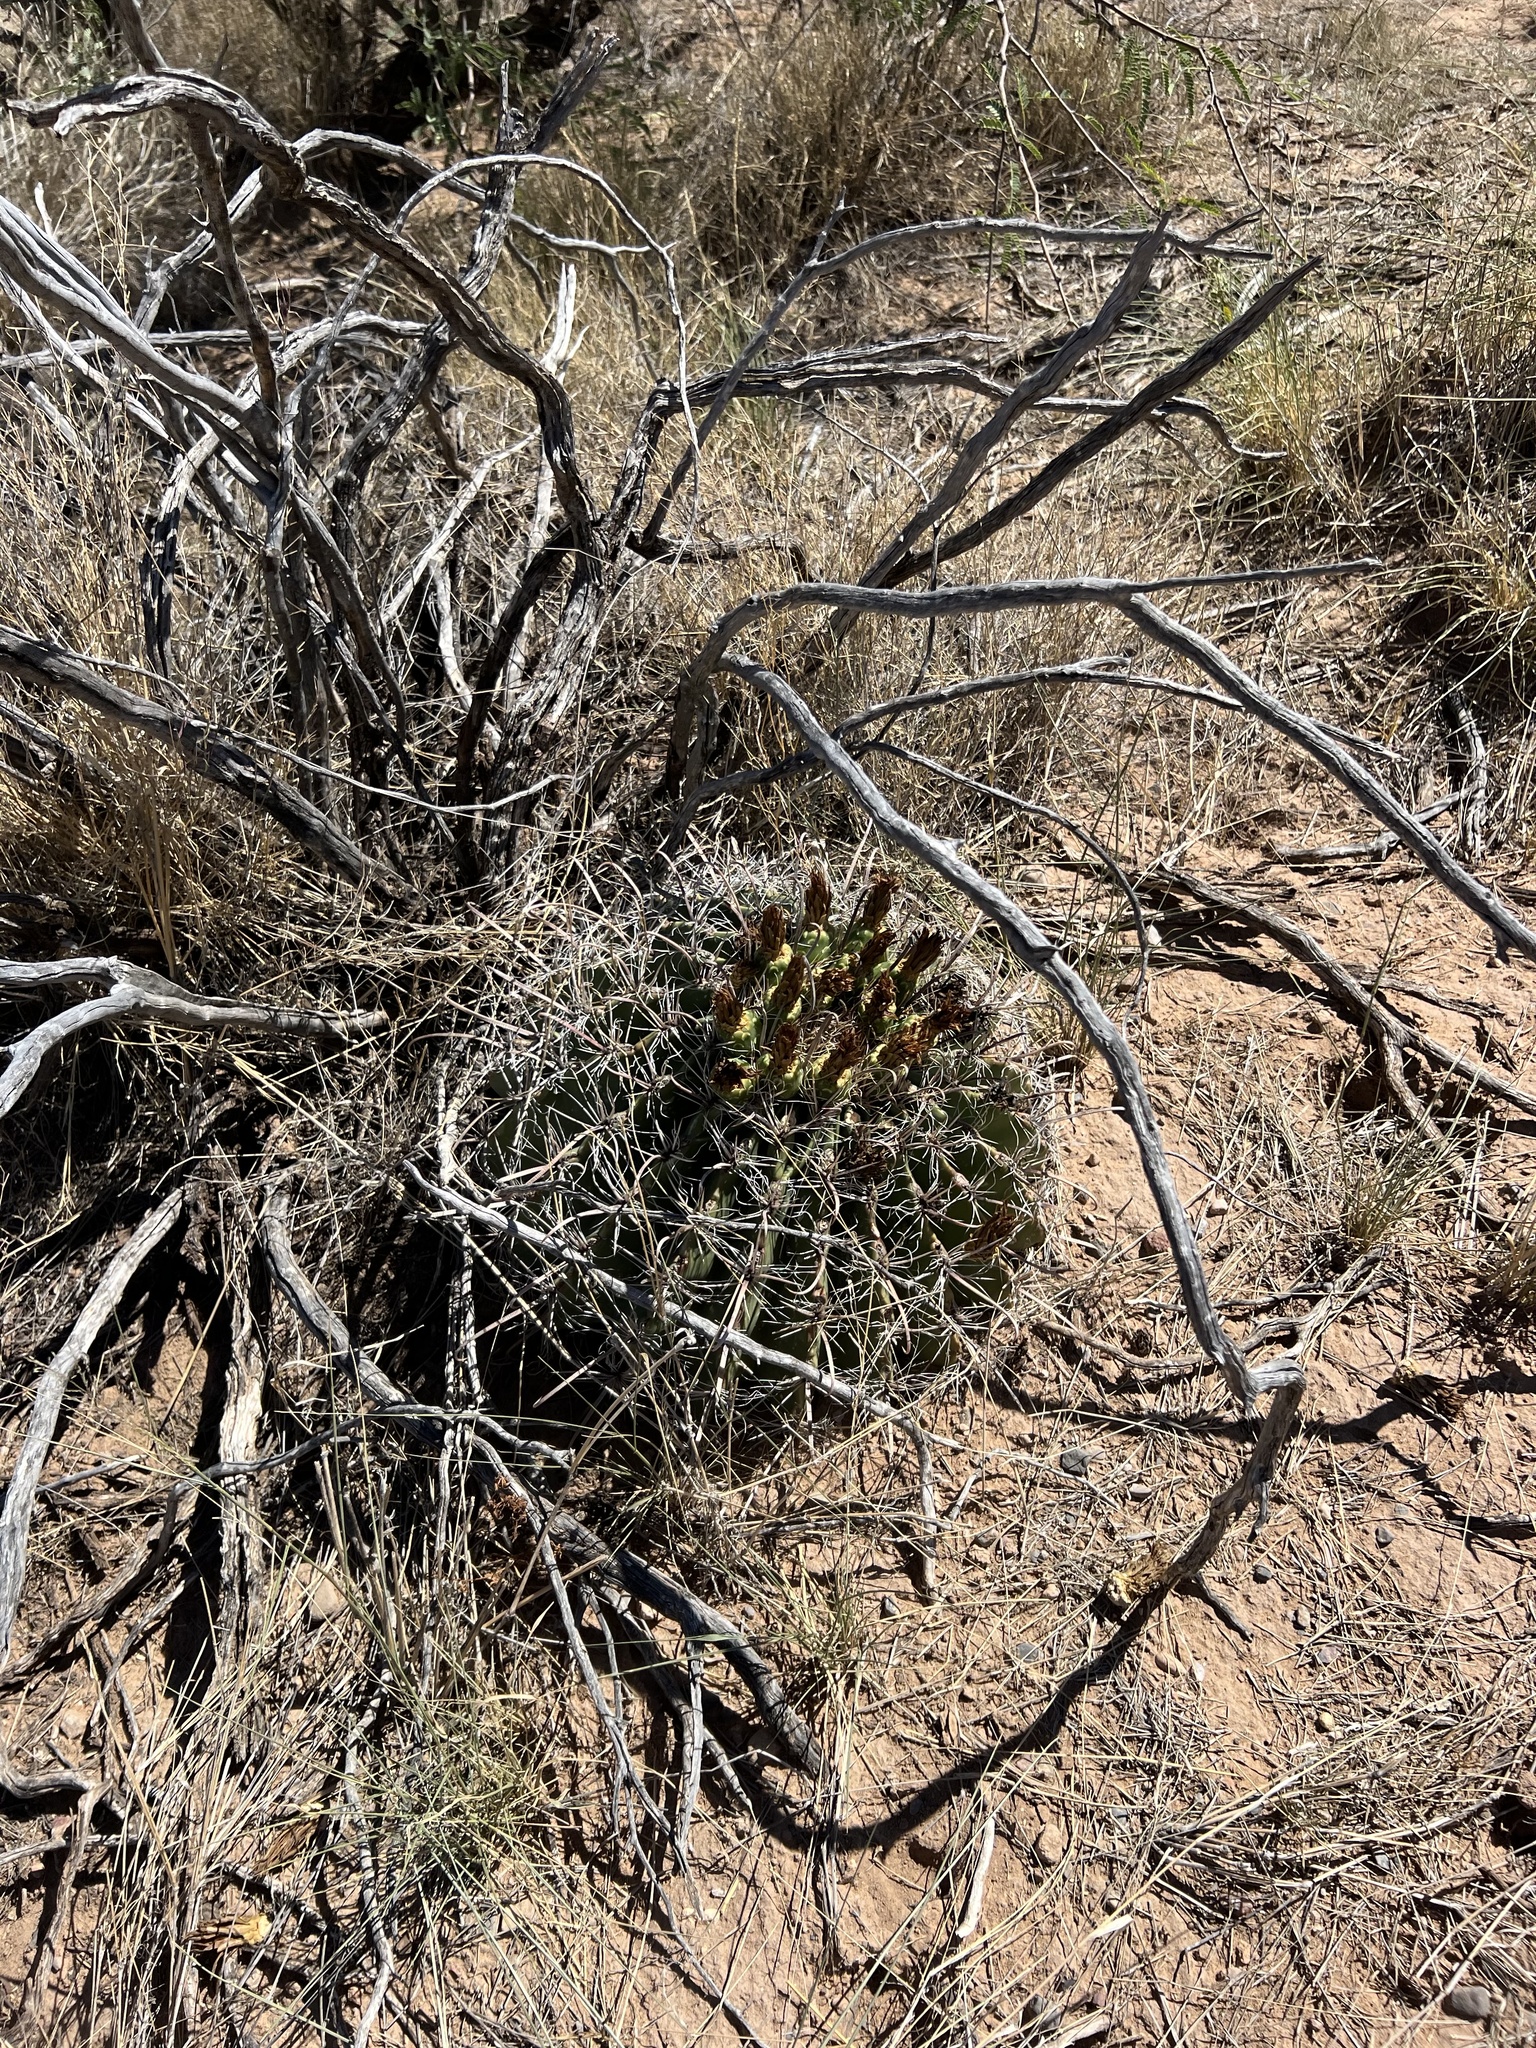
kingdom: Plantae
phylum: Tracheophyta
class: Magnoliopsida
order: Caryophyllales
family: Cactaceae
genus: Ferocactus
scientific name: Ferocactus wislizeni
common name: Candy barrel cactus
